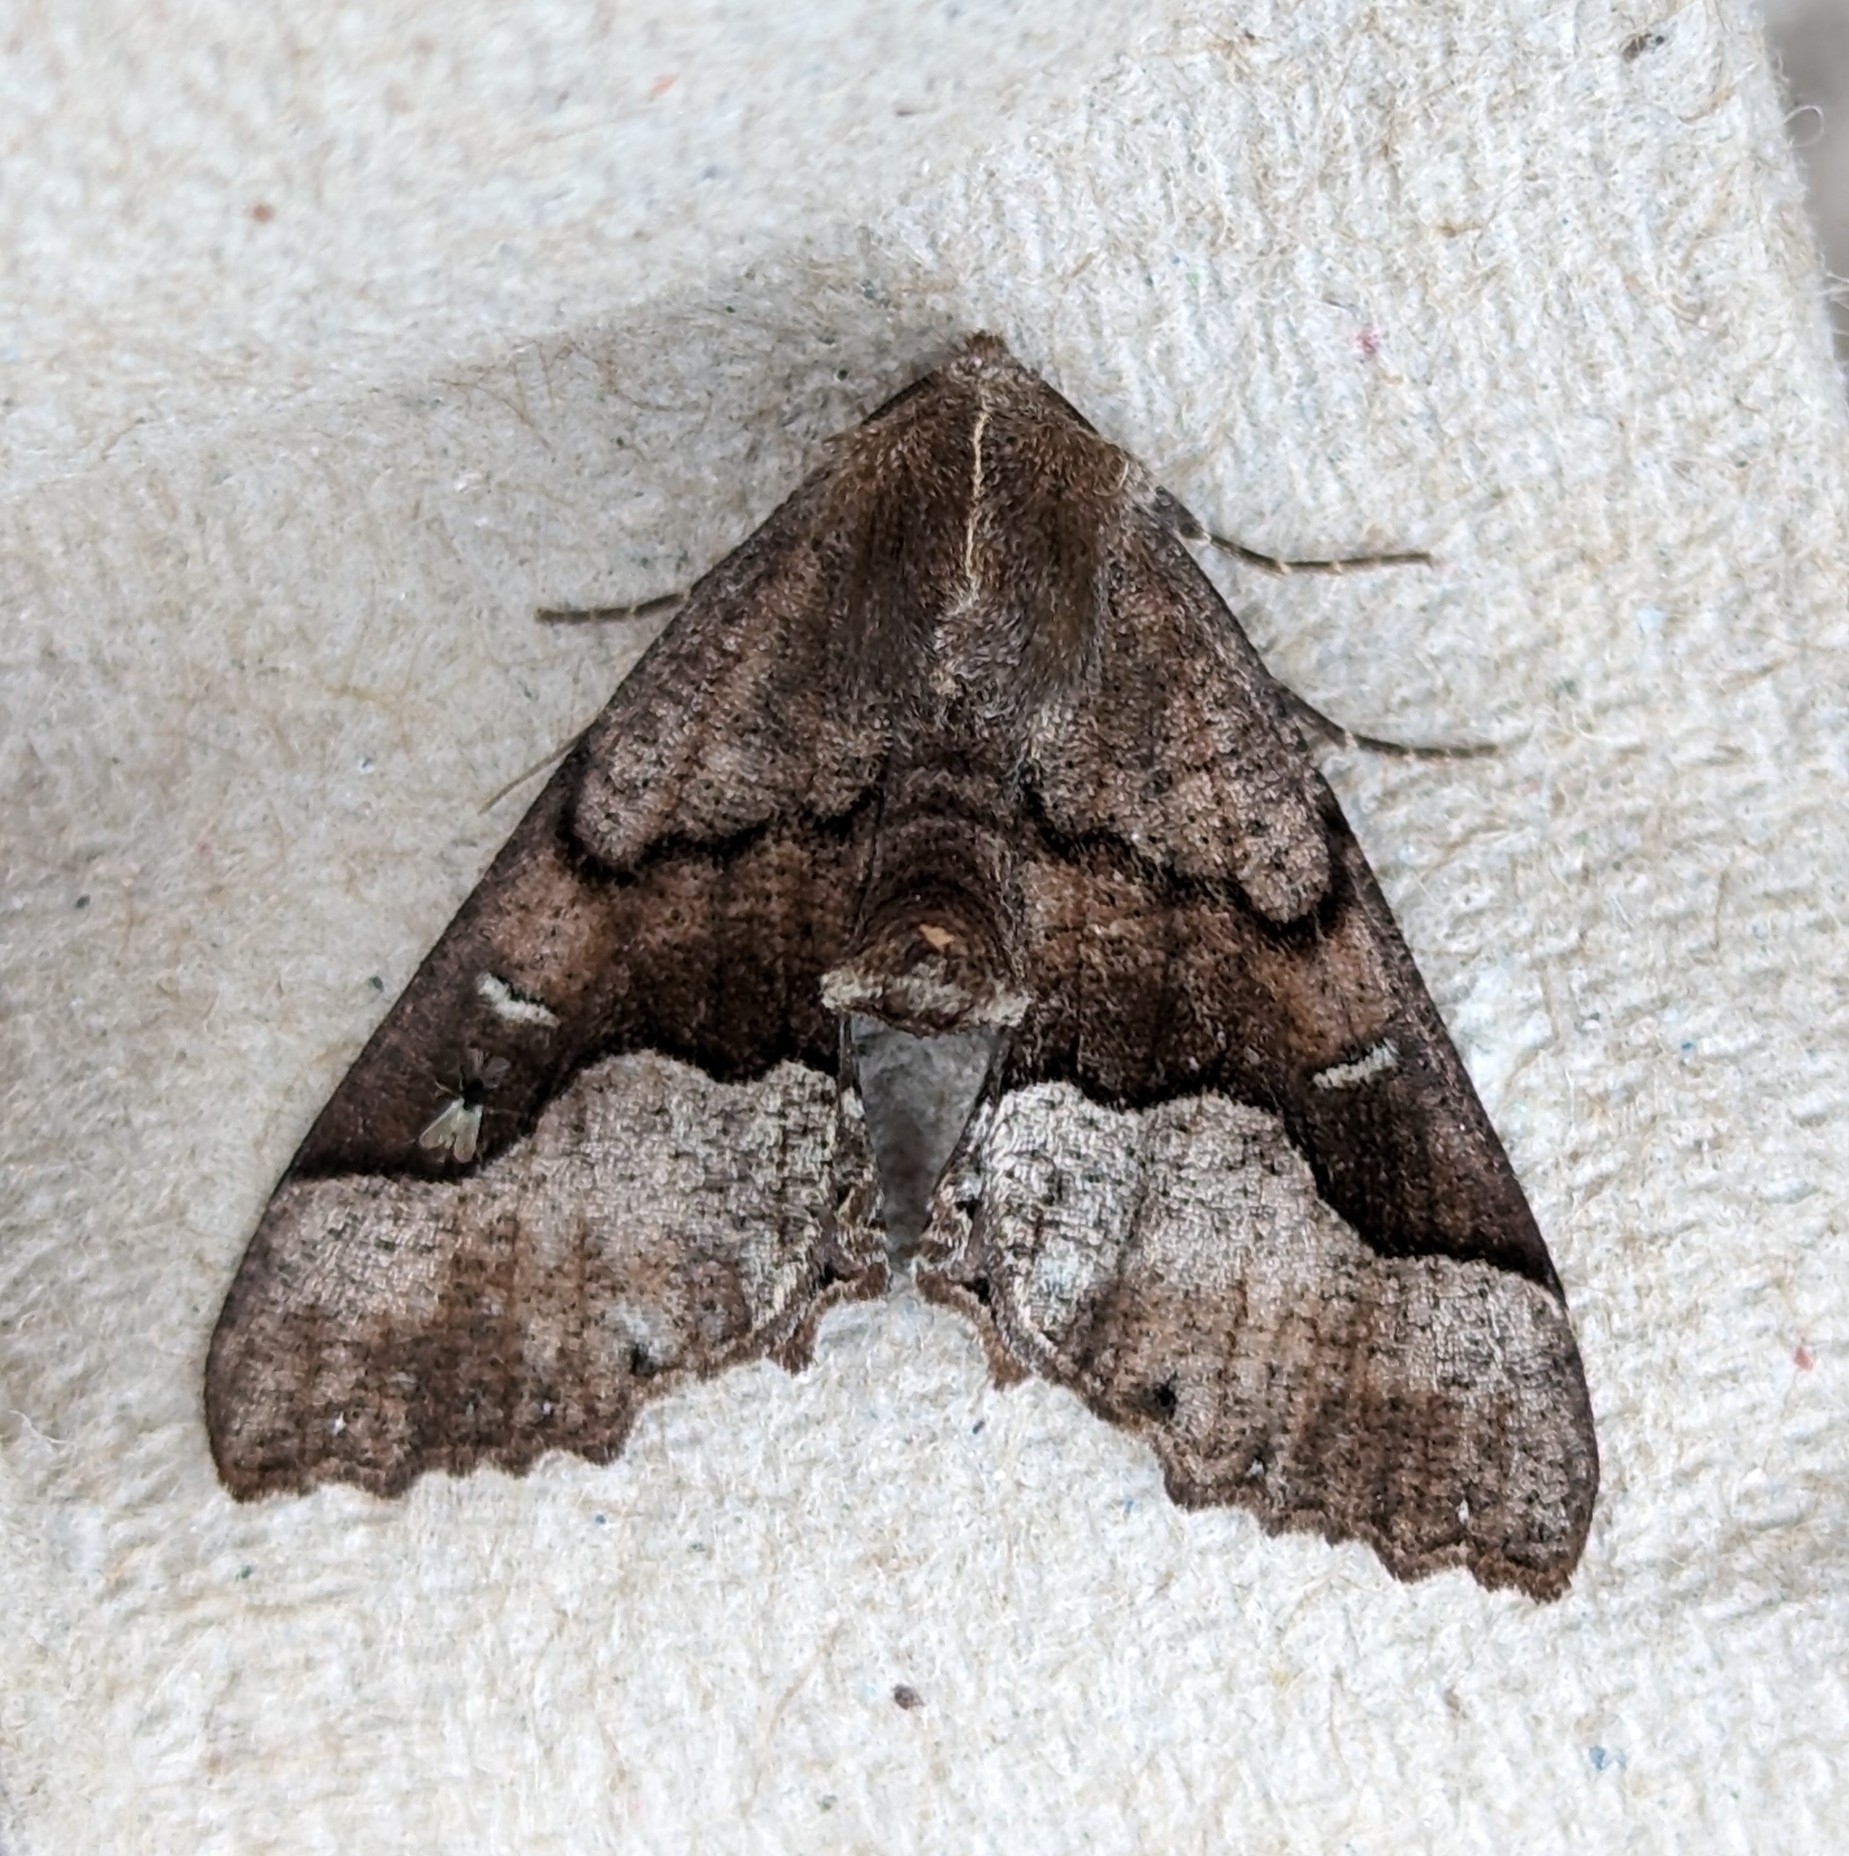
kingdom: Animalia
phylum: Arthropoda
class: Insecta
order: Lepidoptera
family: Geometridae
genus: Pero
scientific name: Pero behrensaria
